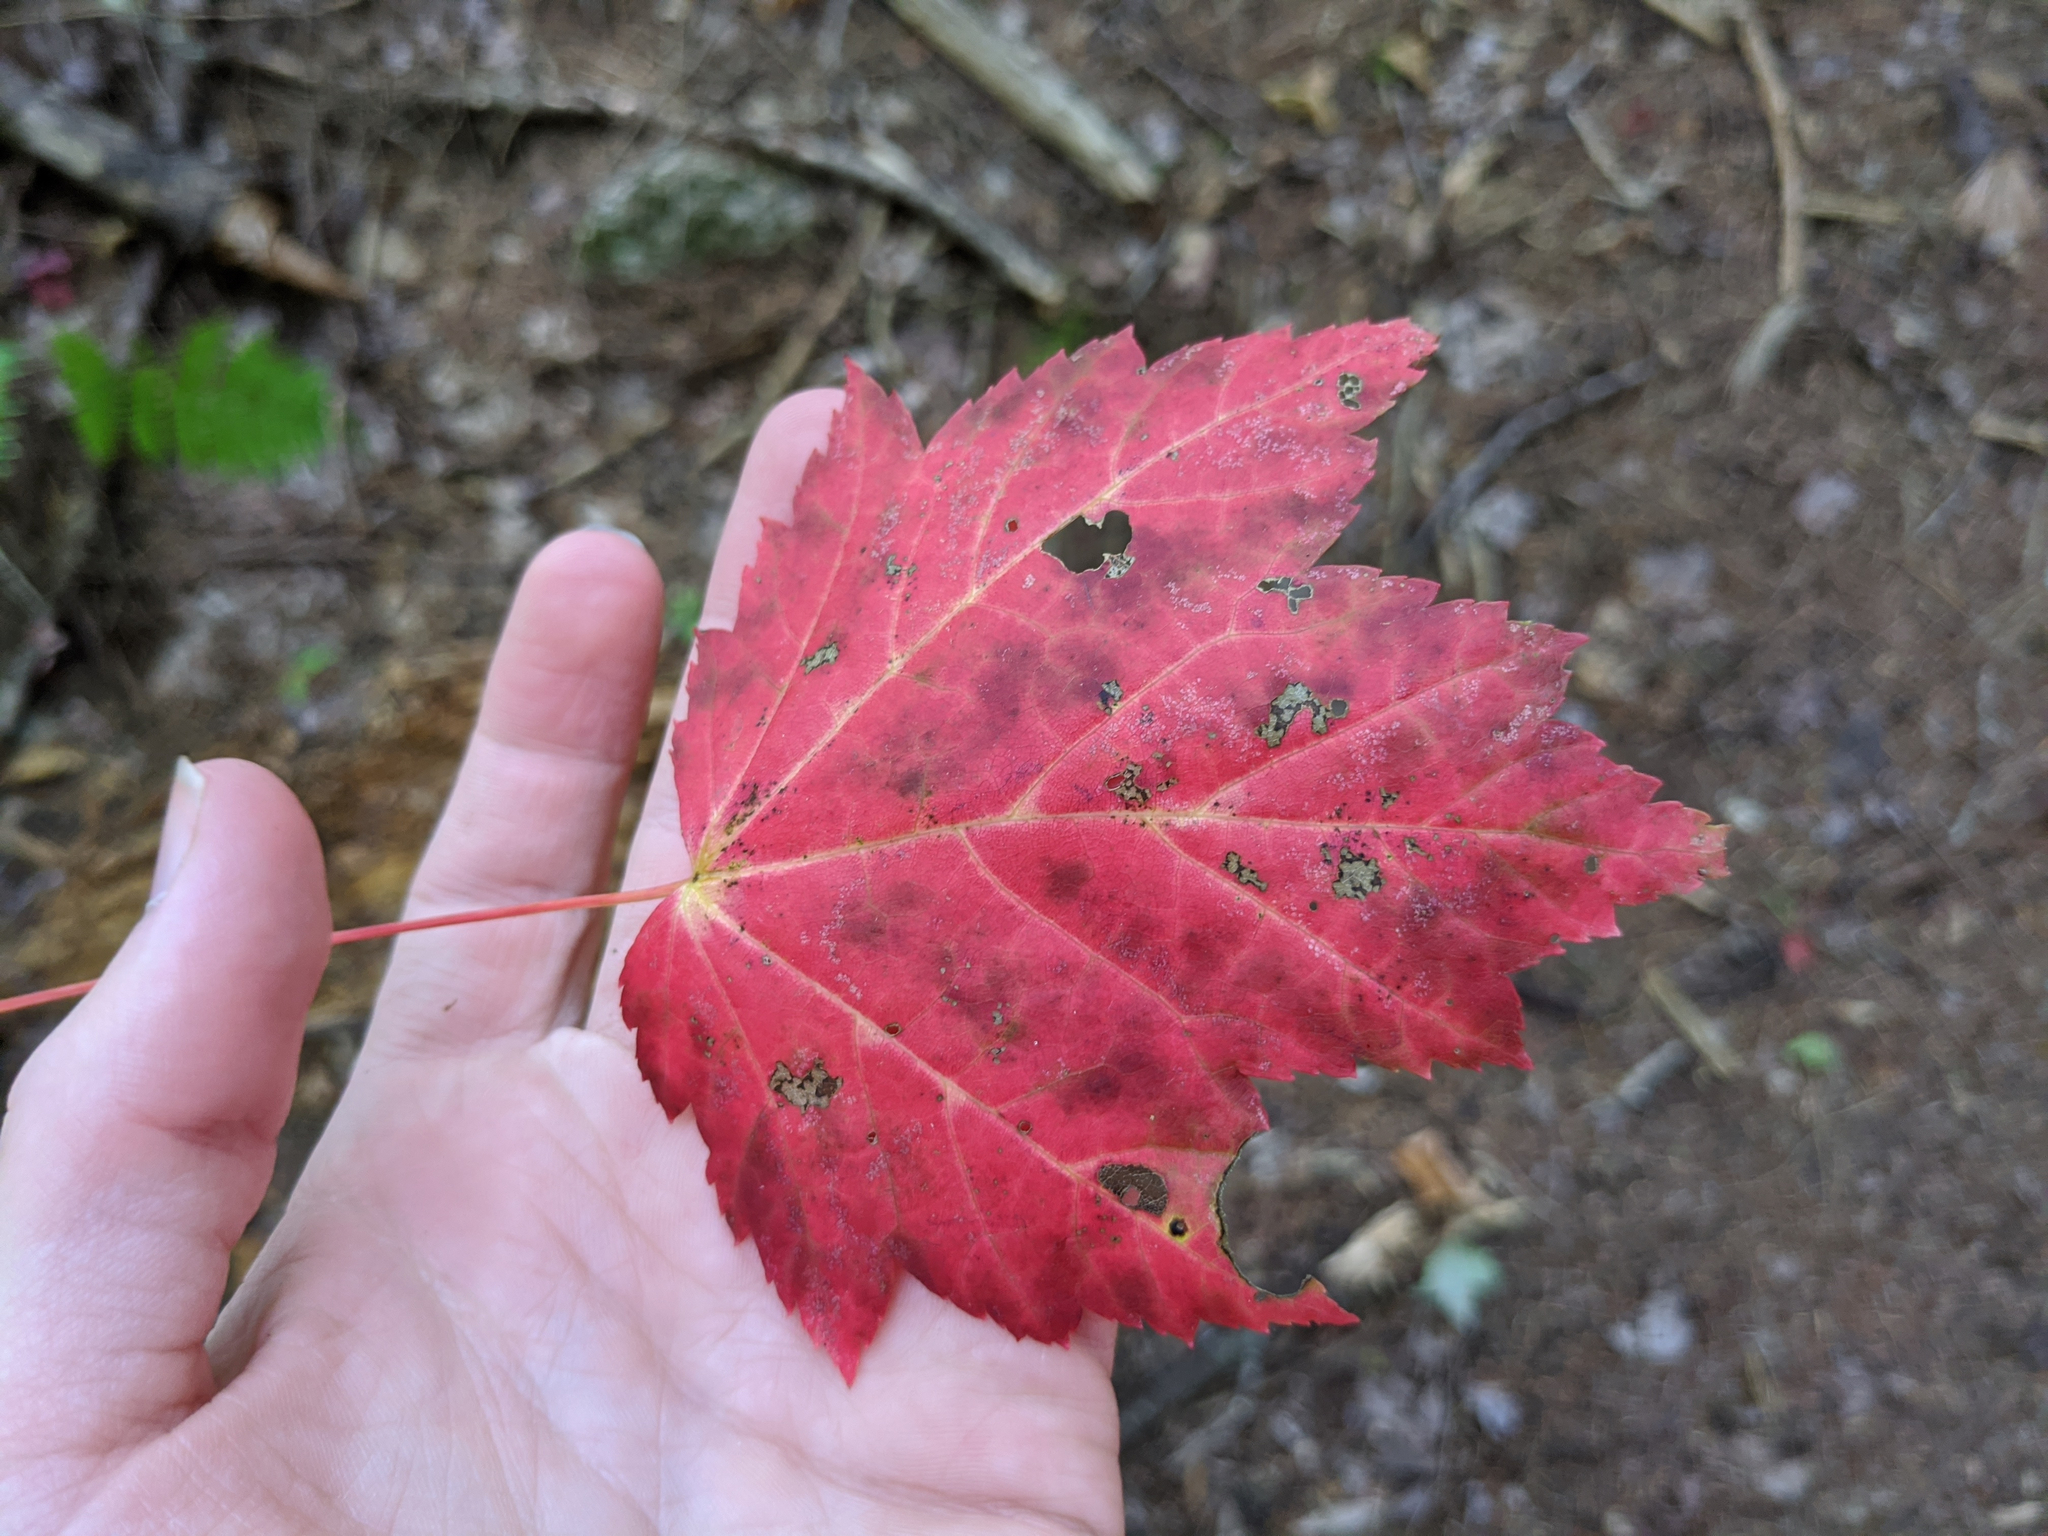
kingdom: Plantae
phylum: Tracheophyta
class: Magnoliopsida
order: Sapindales
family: Sapindaceae
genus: Acer
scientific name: Acer rubrum
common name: Red maple
